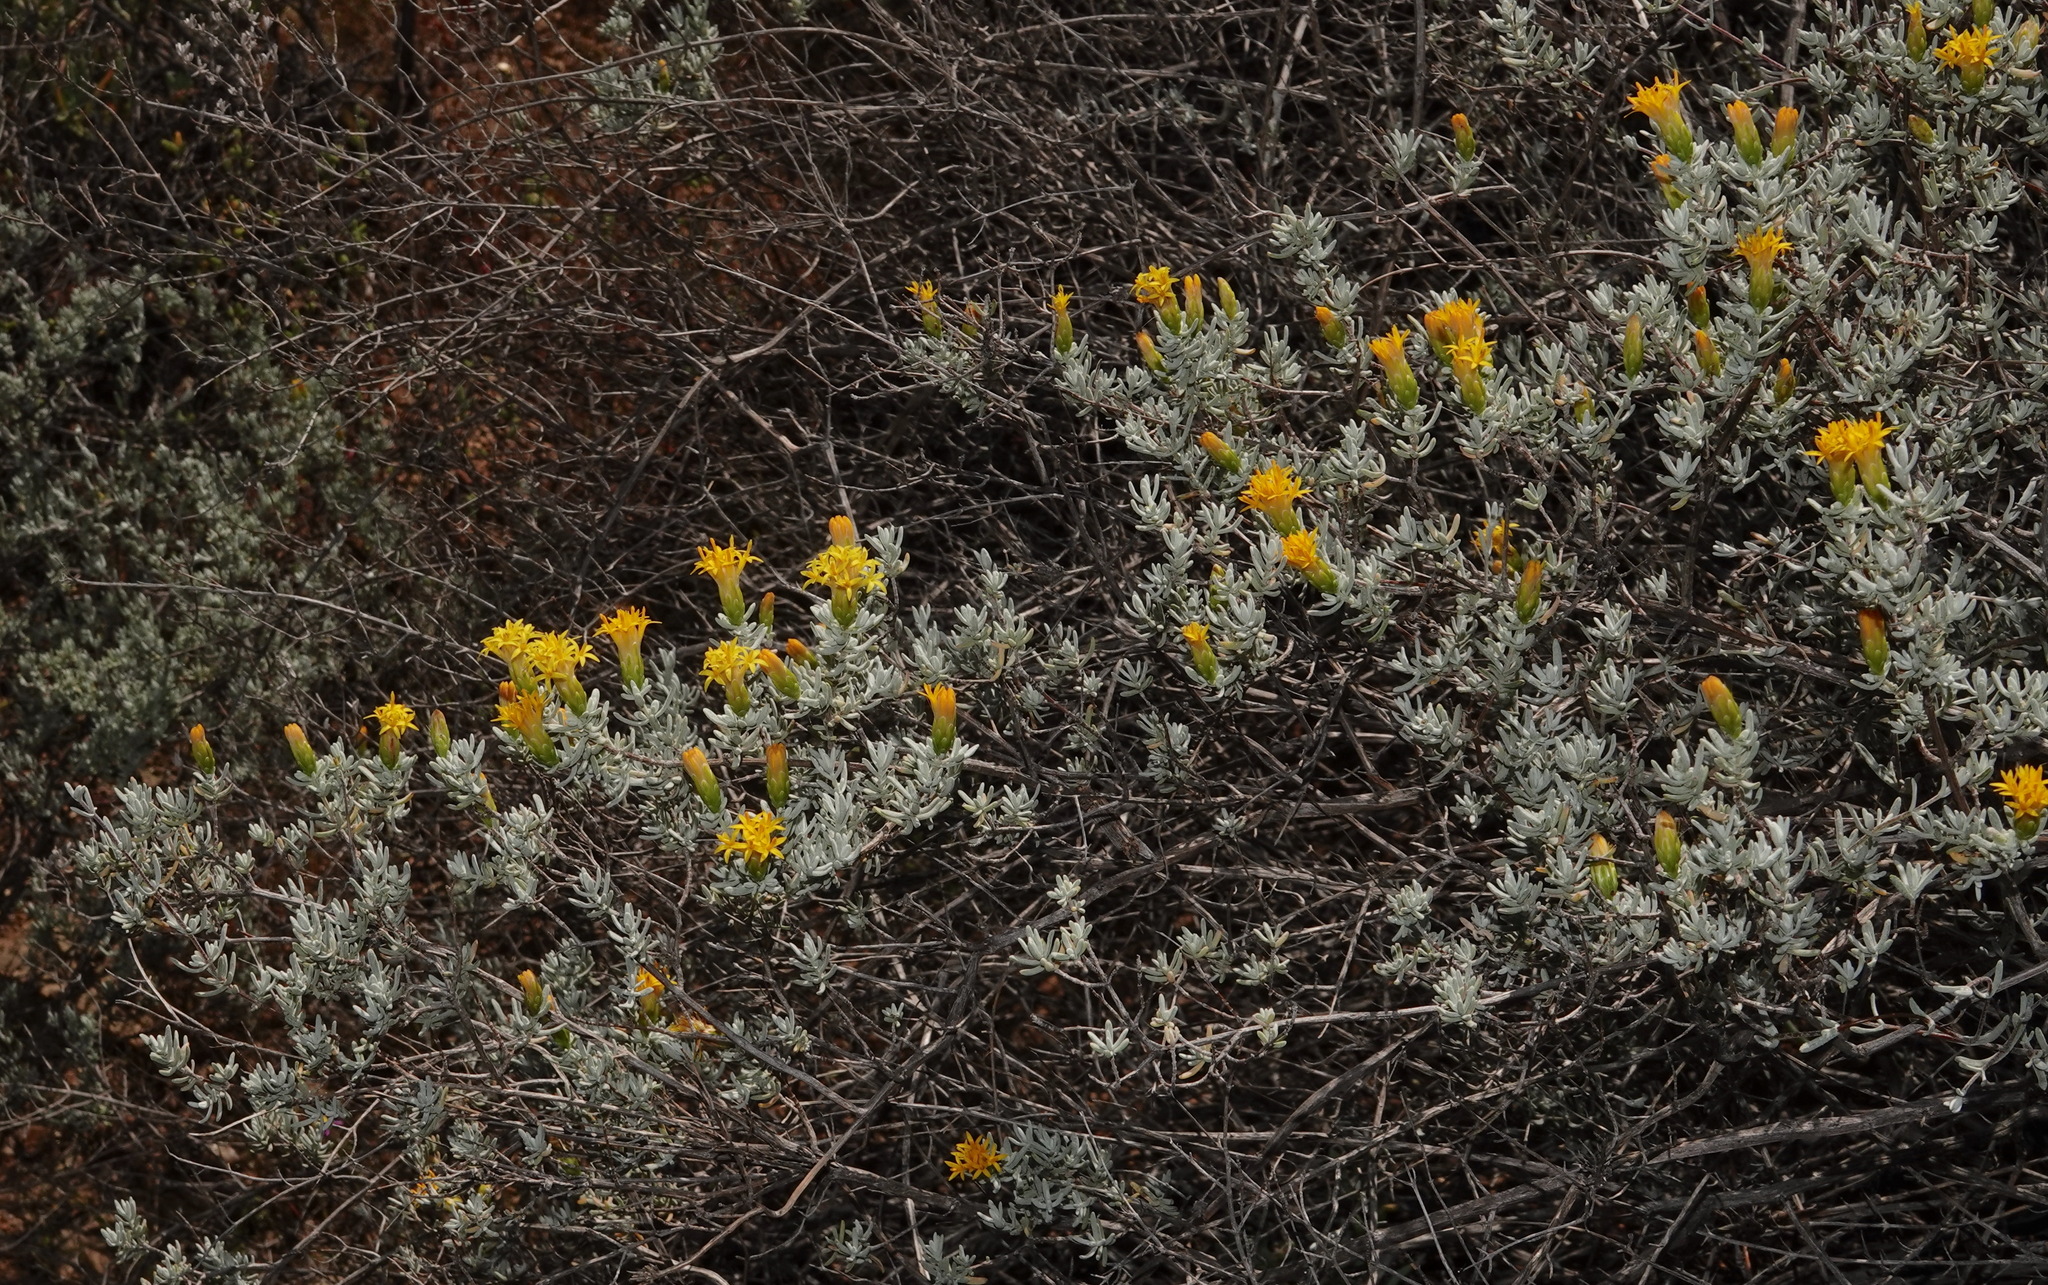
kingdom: Plantae
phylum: Tracheophyta
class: Magnoliopsida
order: Asterales
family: Asteraceae
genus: Pteronia
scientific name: Pteronia incana
